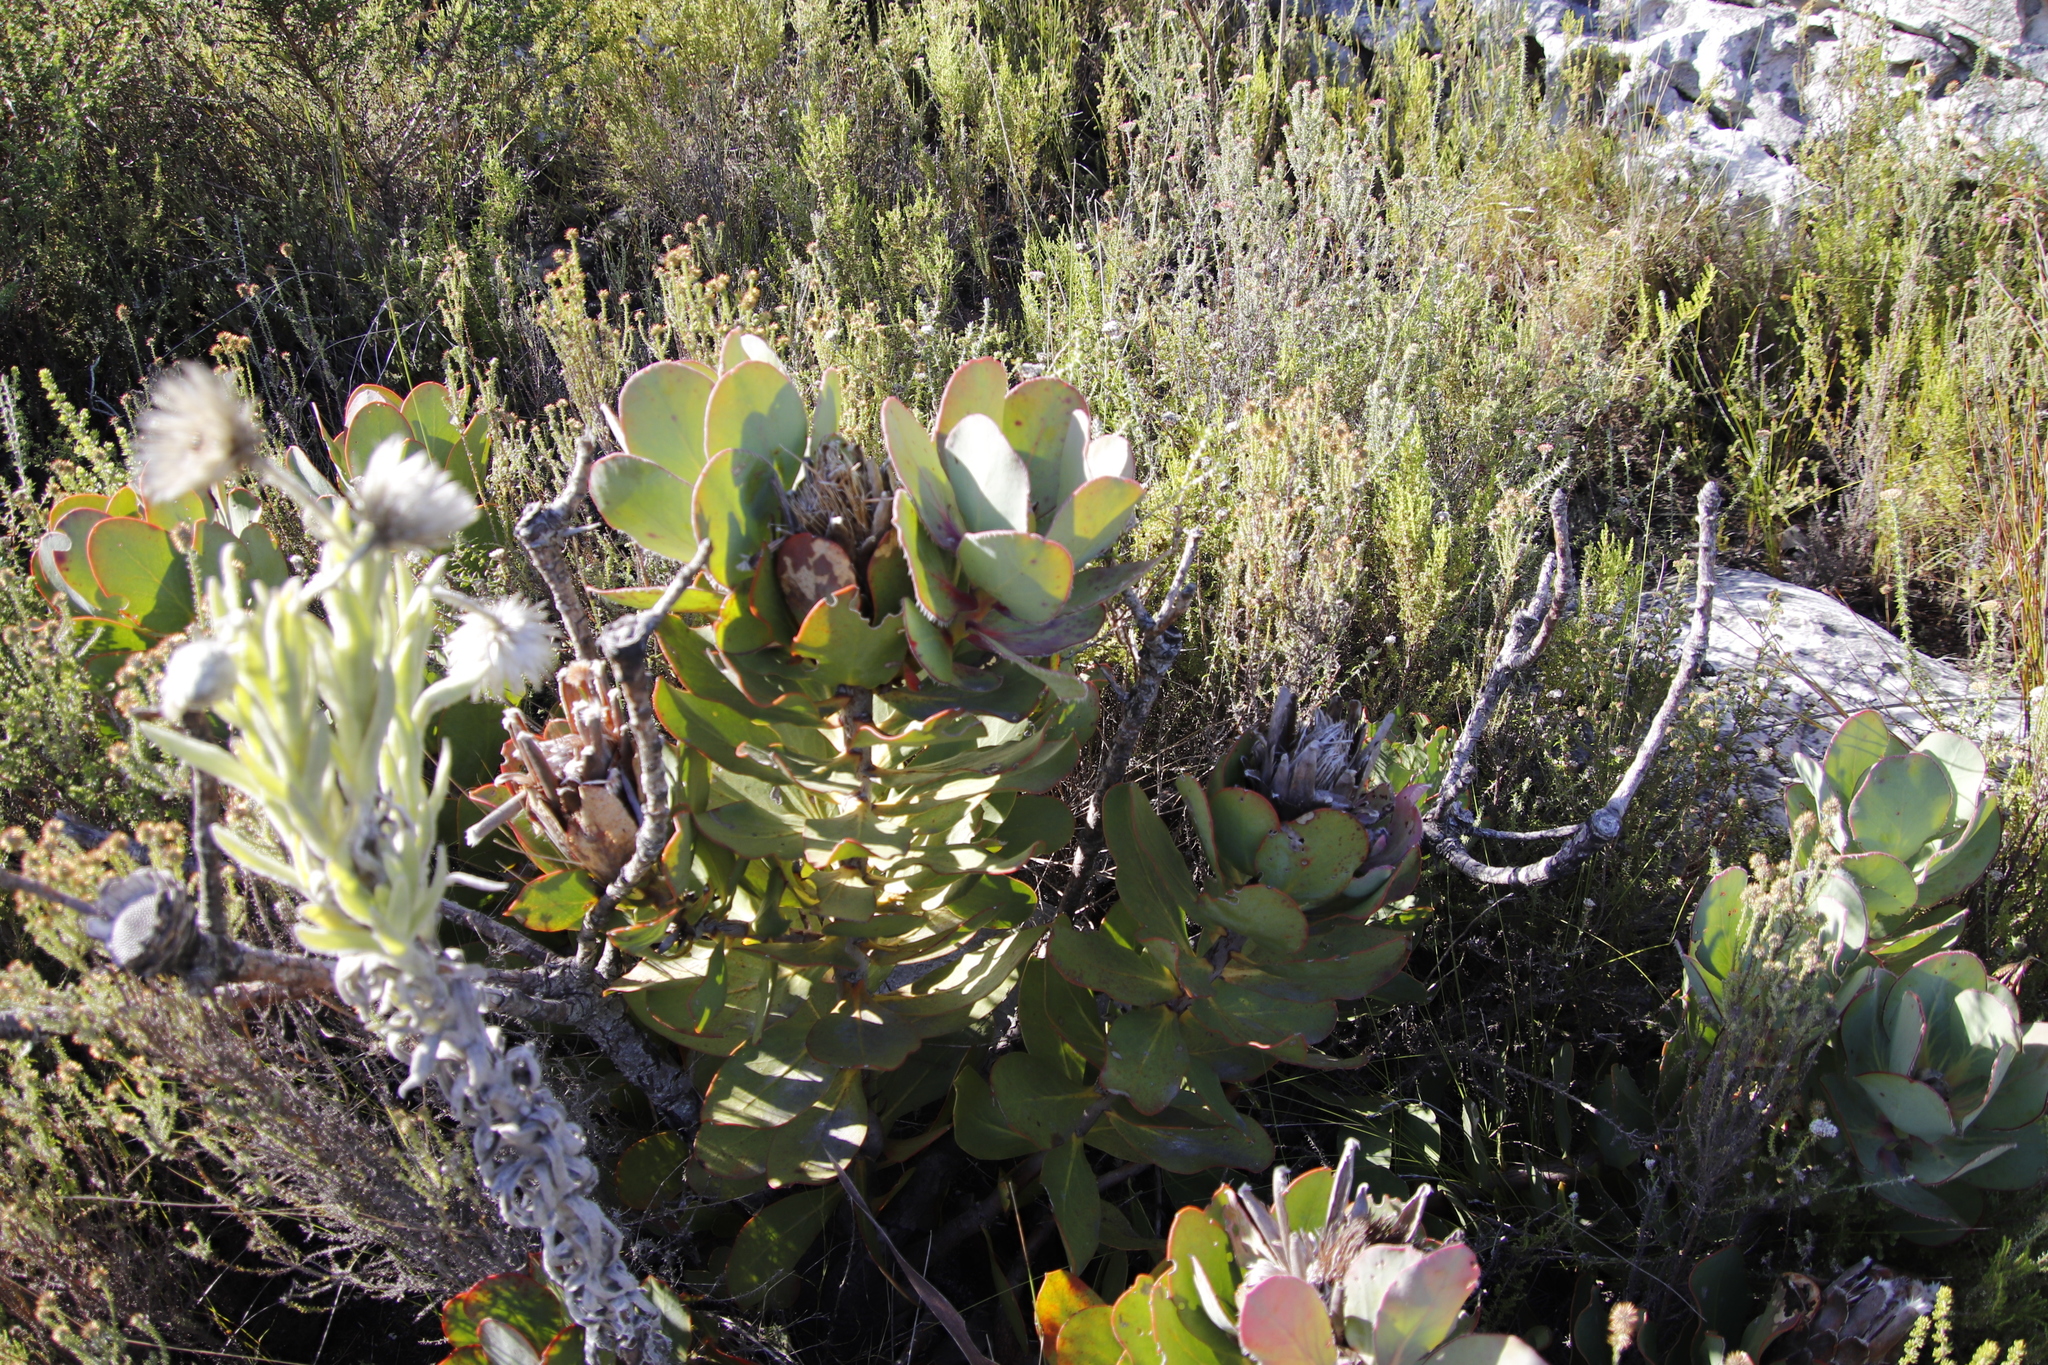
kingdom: Plantae
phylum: Tracheophyta
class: Magnoliopsida
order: Proteales
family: Proteaceae
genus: Protea
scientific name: Protea speciosa
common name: Brown-beard sugarbush
